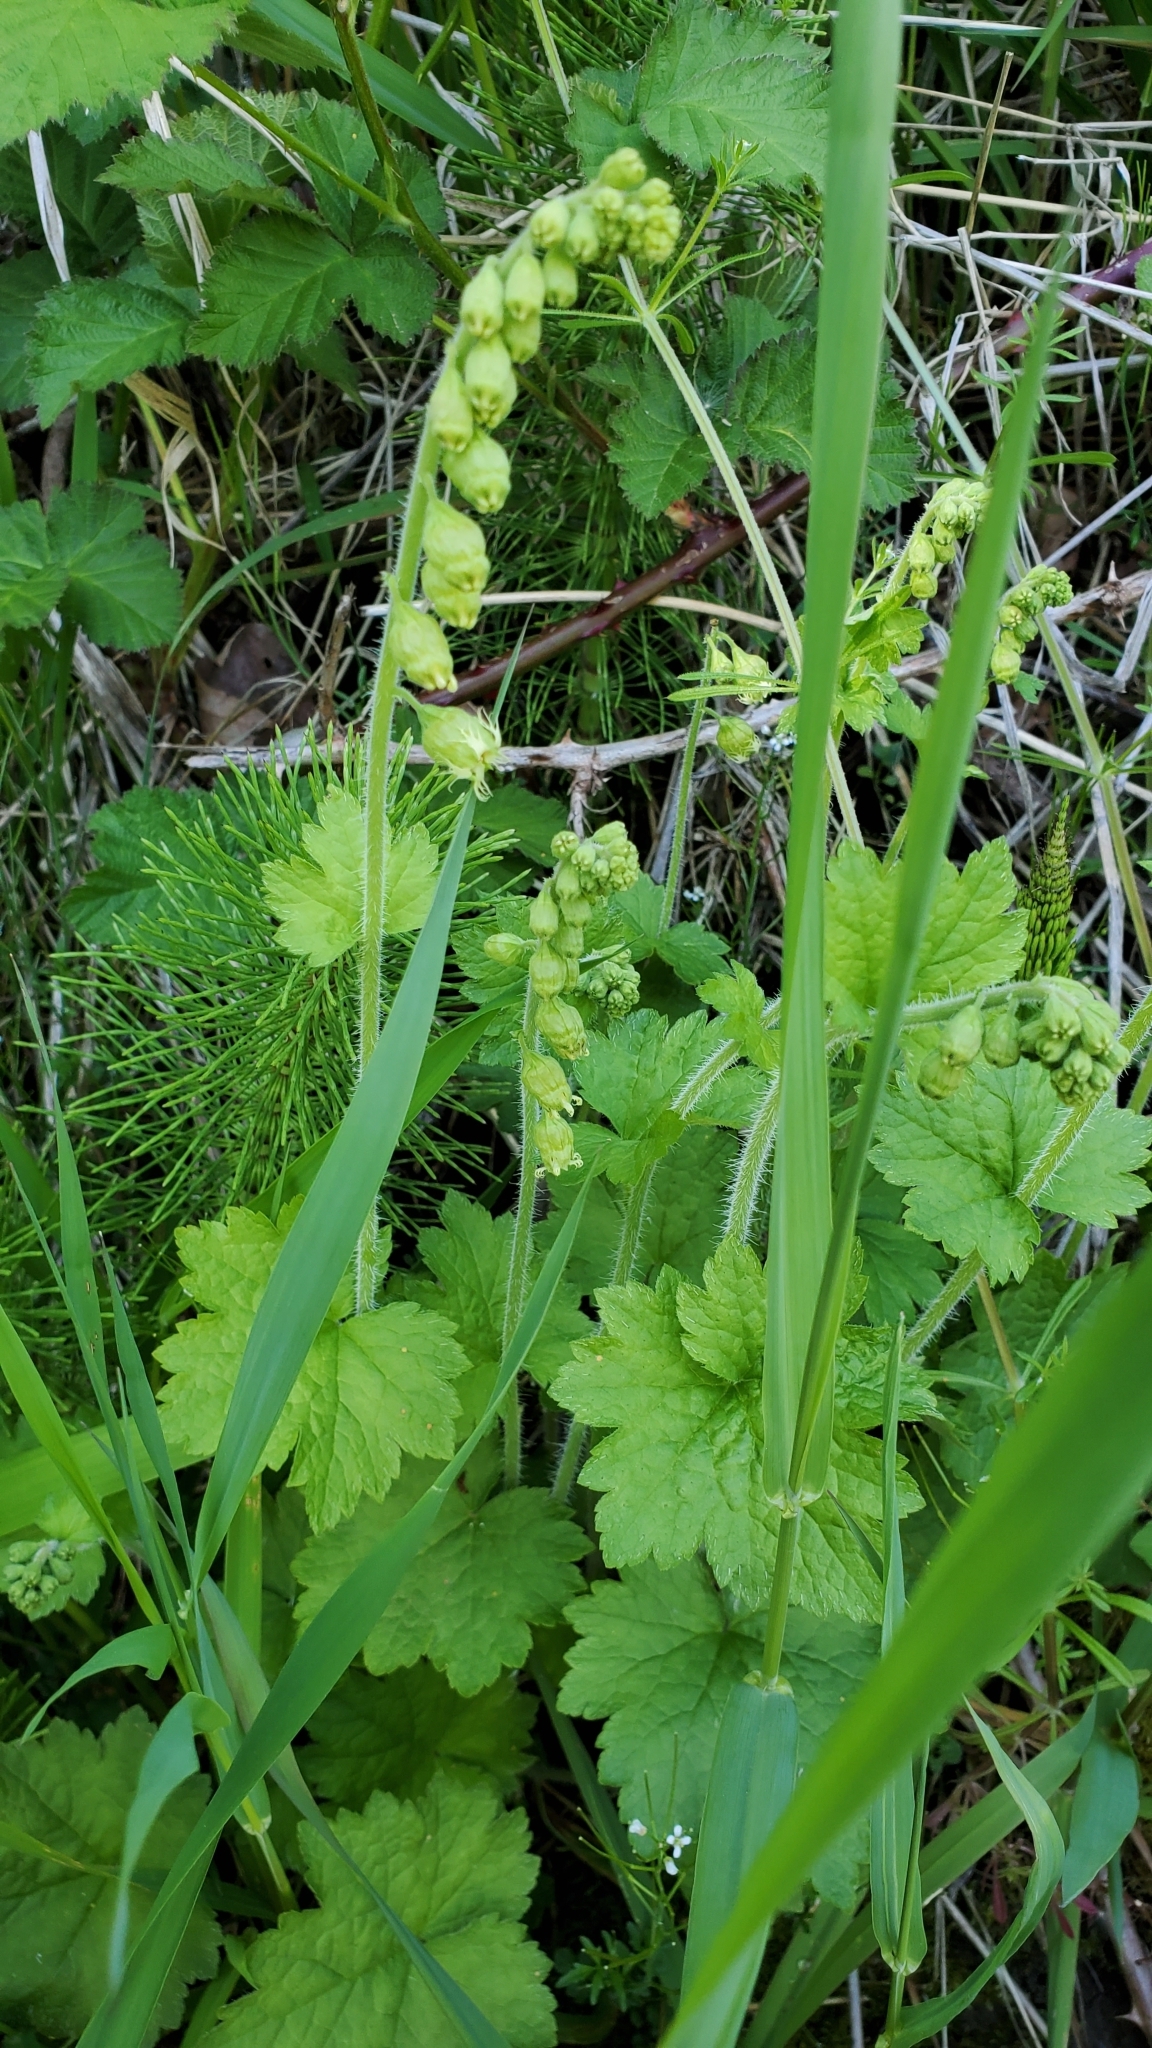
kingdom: Plantae
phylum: Tracheophyta
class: Magnoliopsida
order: Saxifragales
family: Saxifragaceae
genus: Tellima
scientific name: Tellima grandiflora
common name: Fringecups
